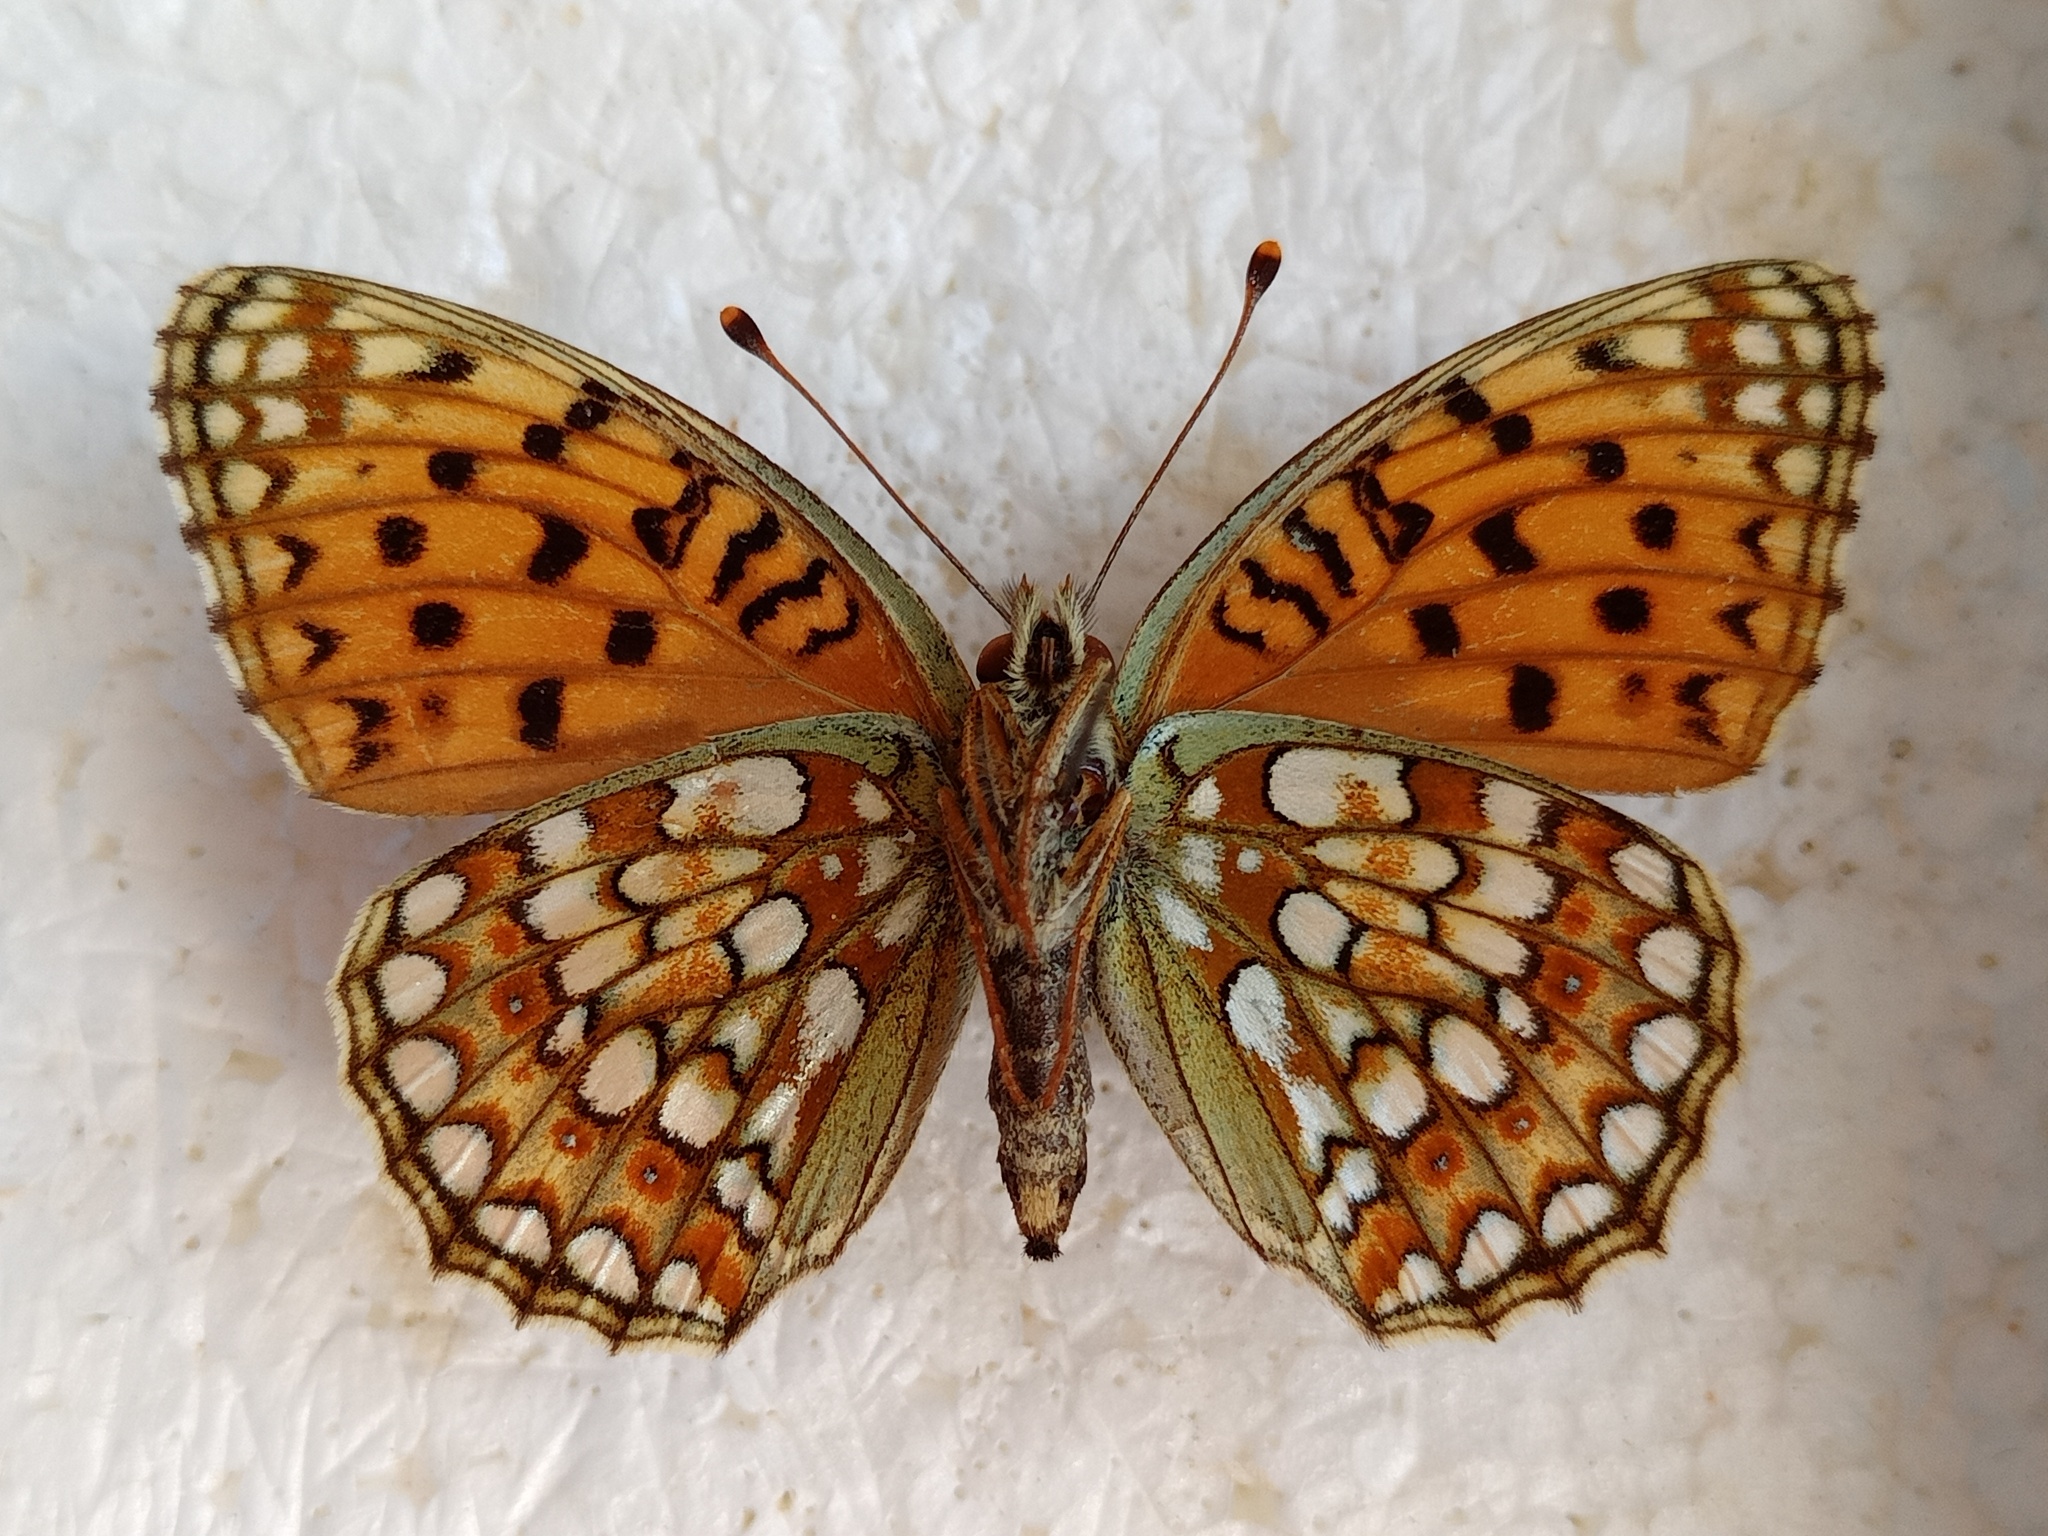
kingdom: Animalia
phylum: Arthropoda
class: Insecta
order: Lepidoptera
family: Nymphalidae
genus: Fabriciana
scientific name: Fabriciana niobe
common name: Niobe fritillary
